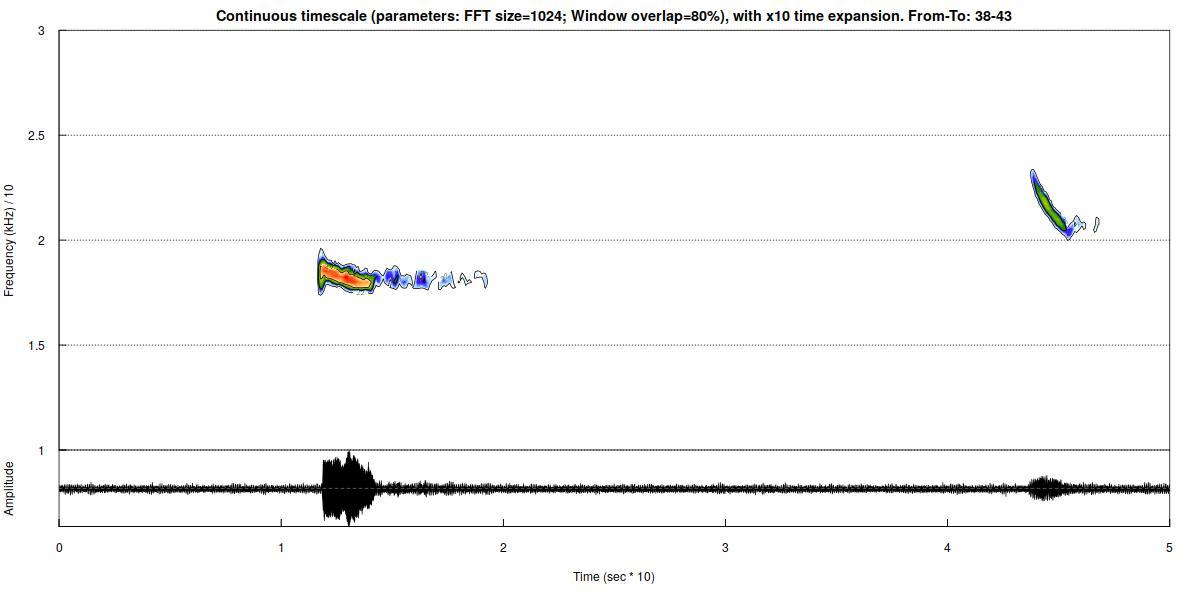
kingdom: Animalia
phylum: Chordata
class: Mammalia
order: Chiroptera
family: Vespertilionidae
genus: Nyctalus
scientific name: Nyctalus noctula
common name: Noctule
